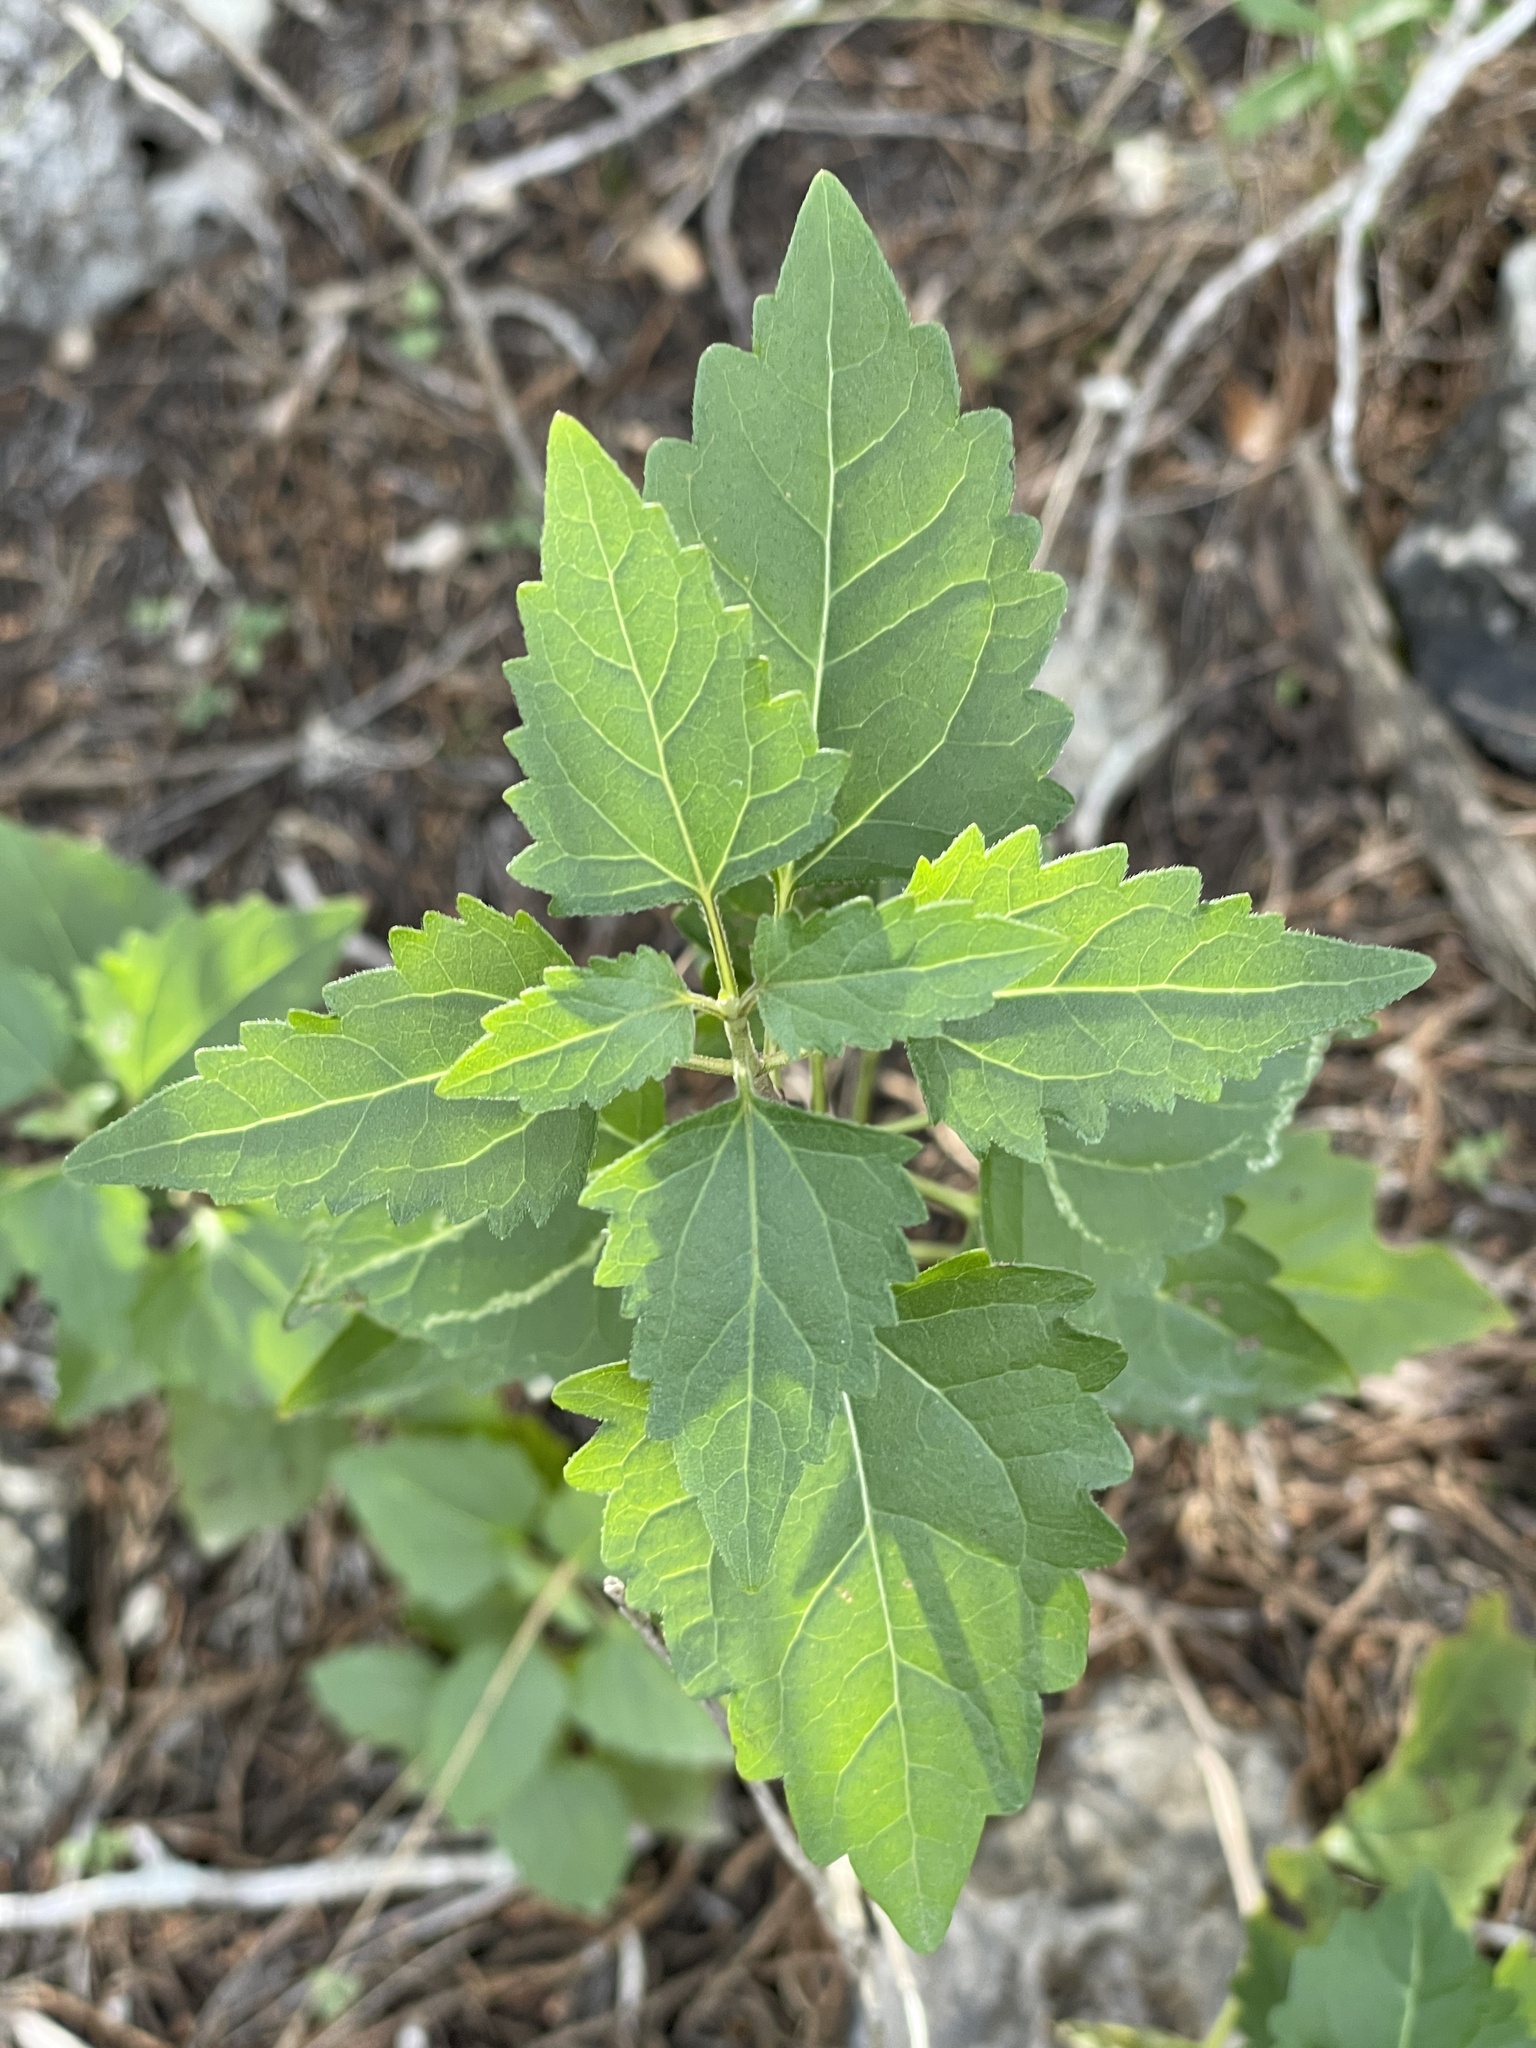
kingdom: Plantae
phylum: Tracheophyta
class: Magnoliopsida
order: Asterales
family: Asteraceae
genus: Ageratina
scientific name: Ageratina havanensis
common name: Havana snakeroot
